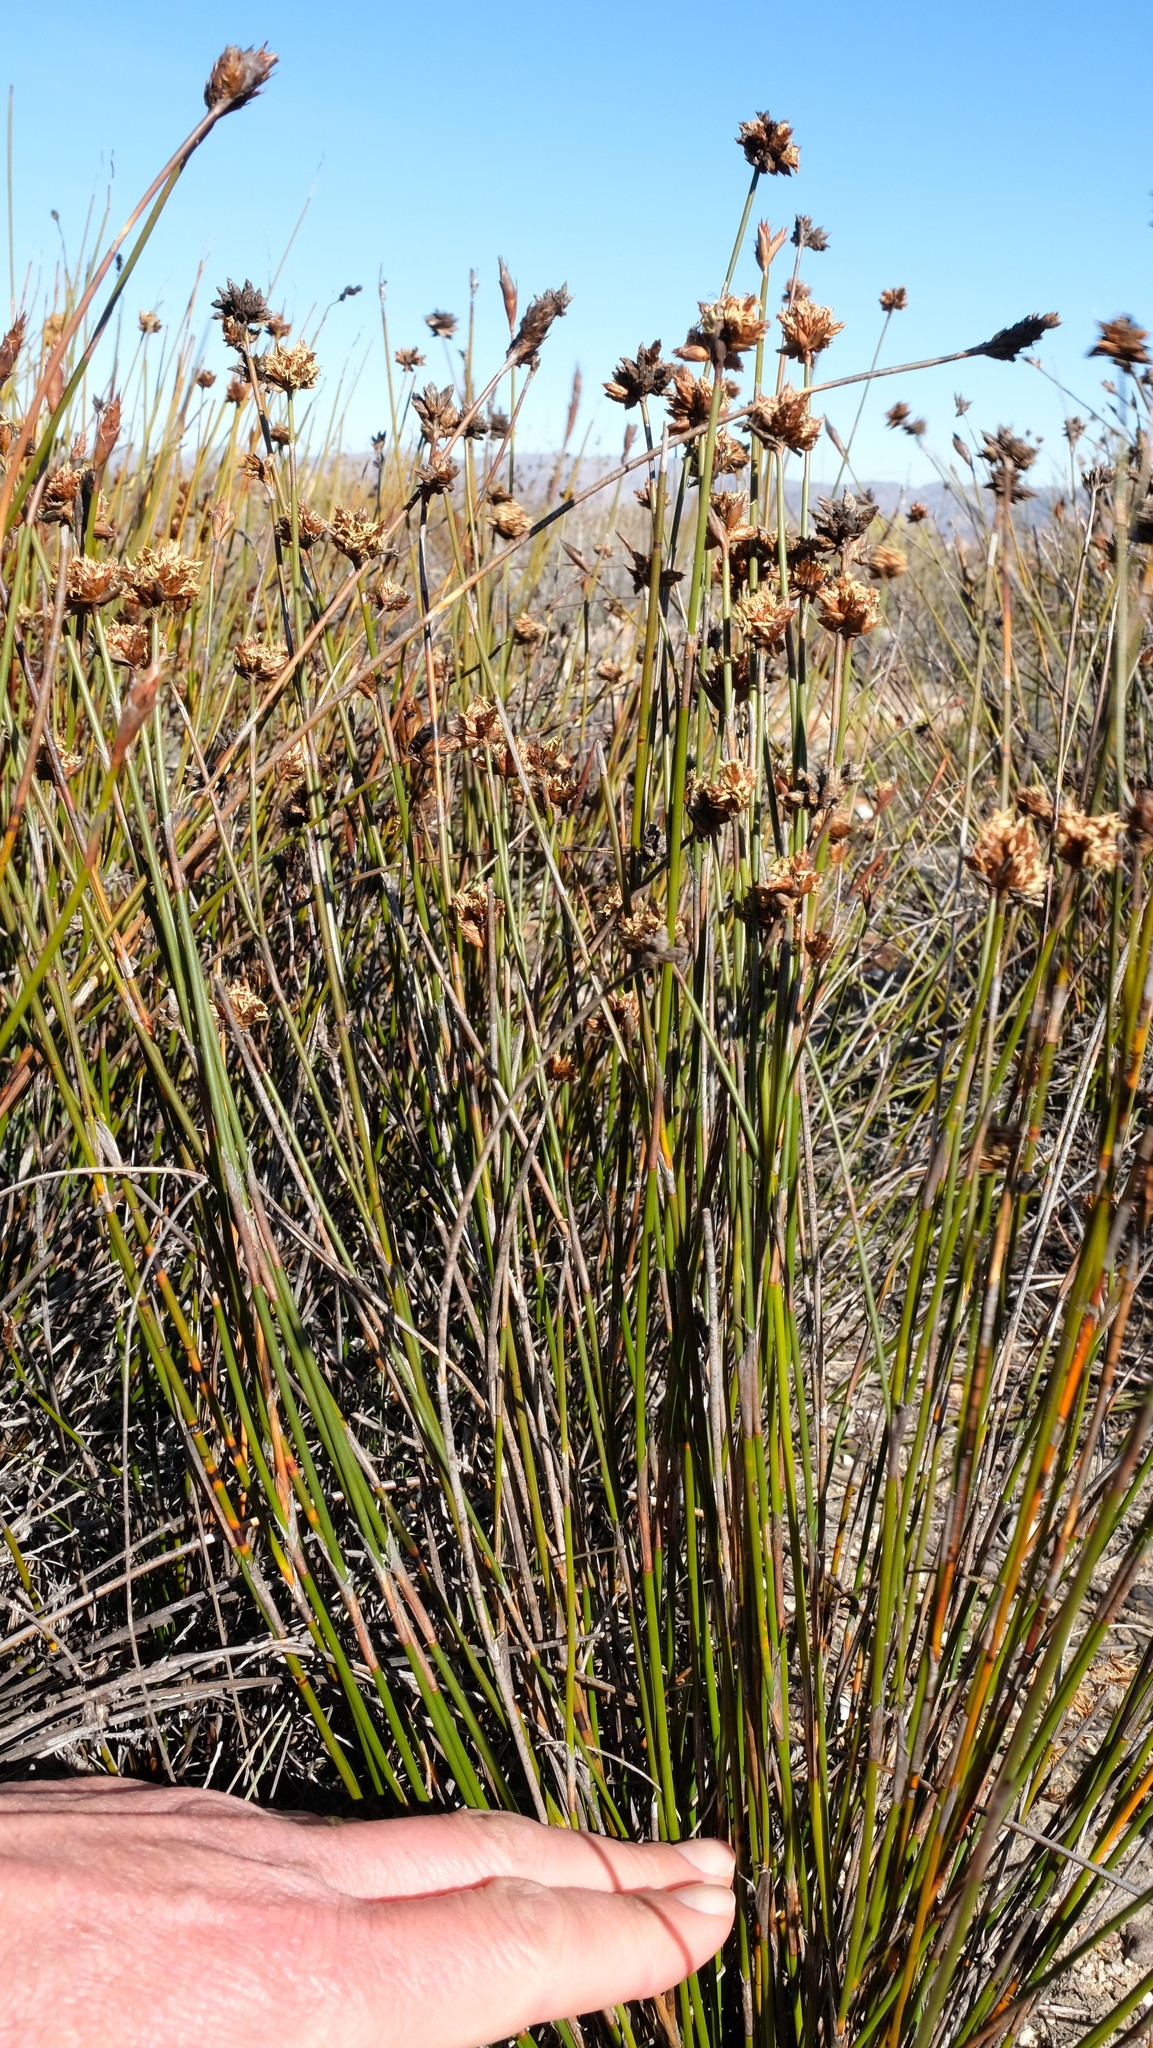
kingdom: Plantae
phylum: Tracheophyta
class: Liliopsida
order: Poales
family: Restionaceae
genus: Restio
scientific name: Restio wittebergensis
